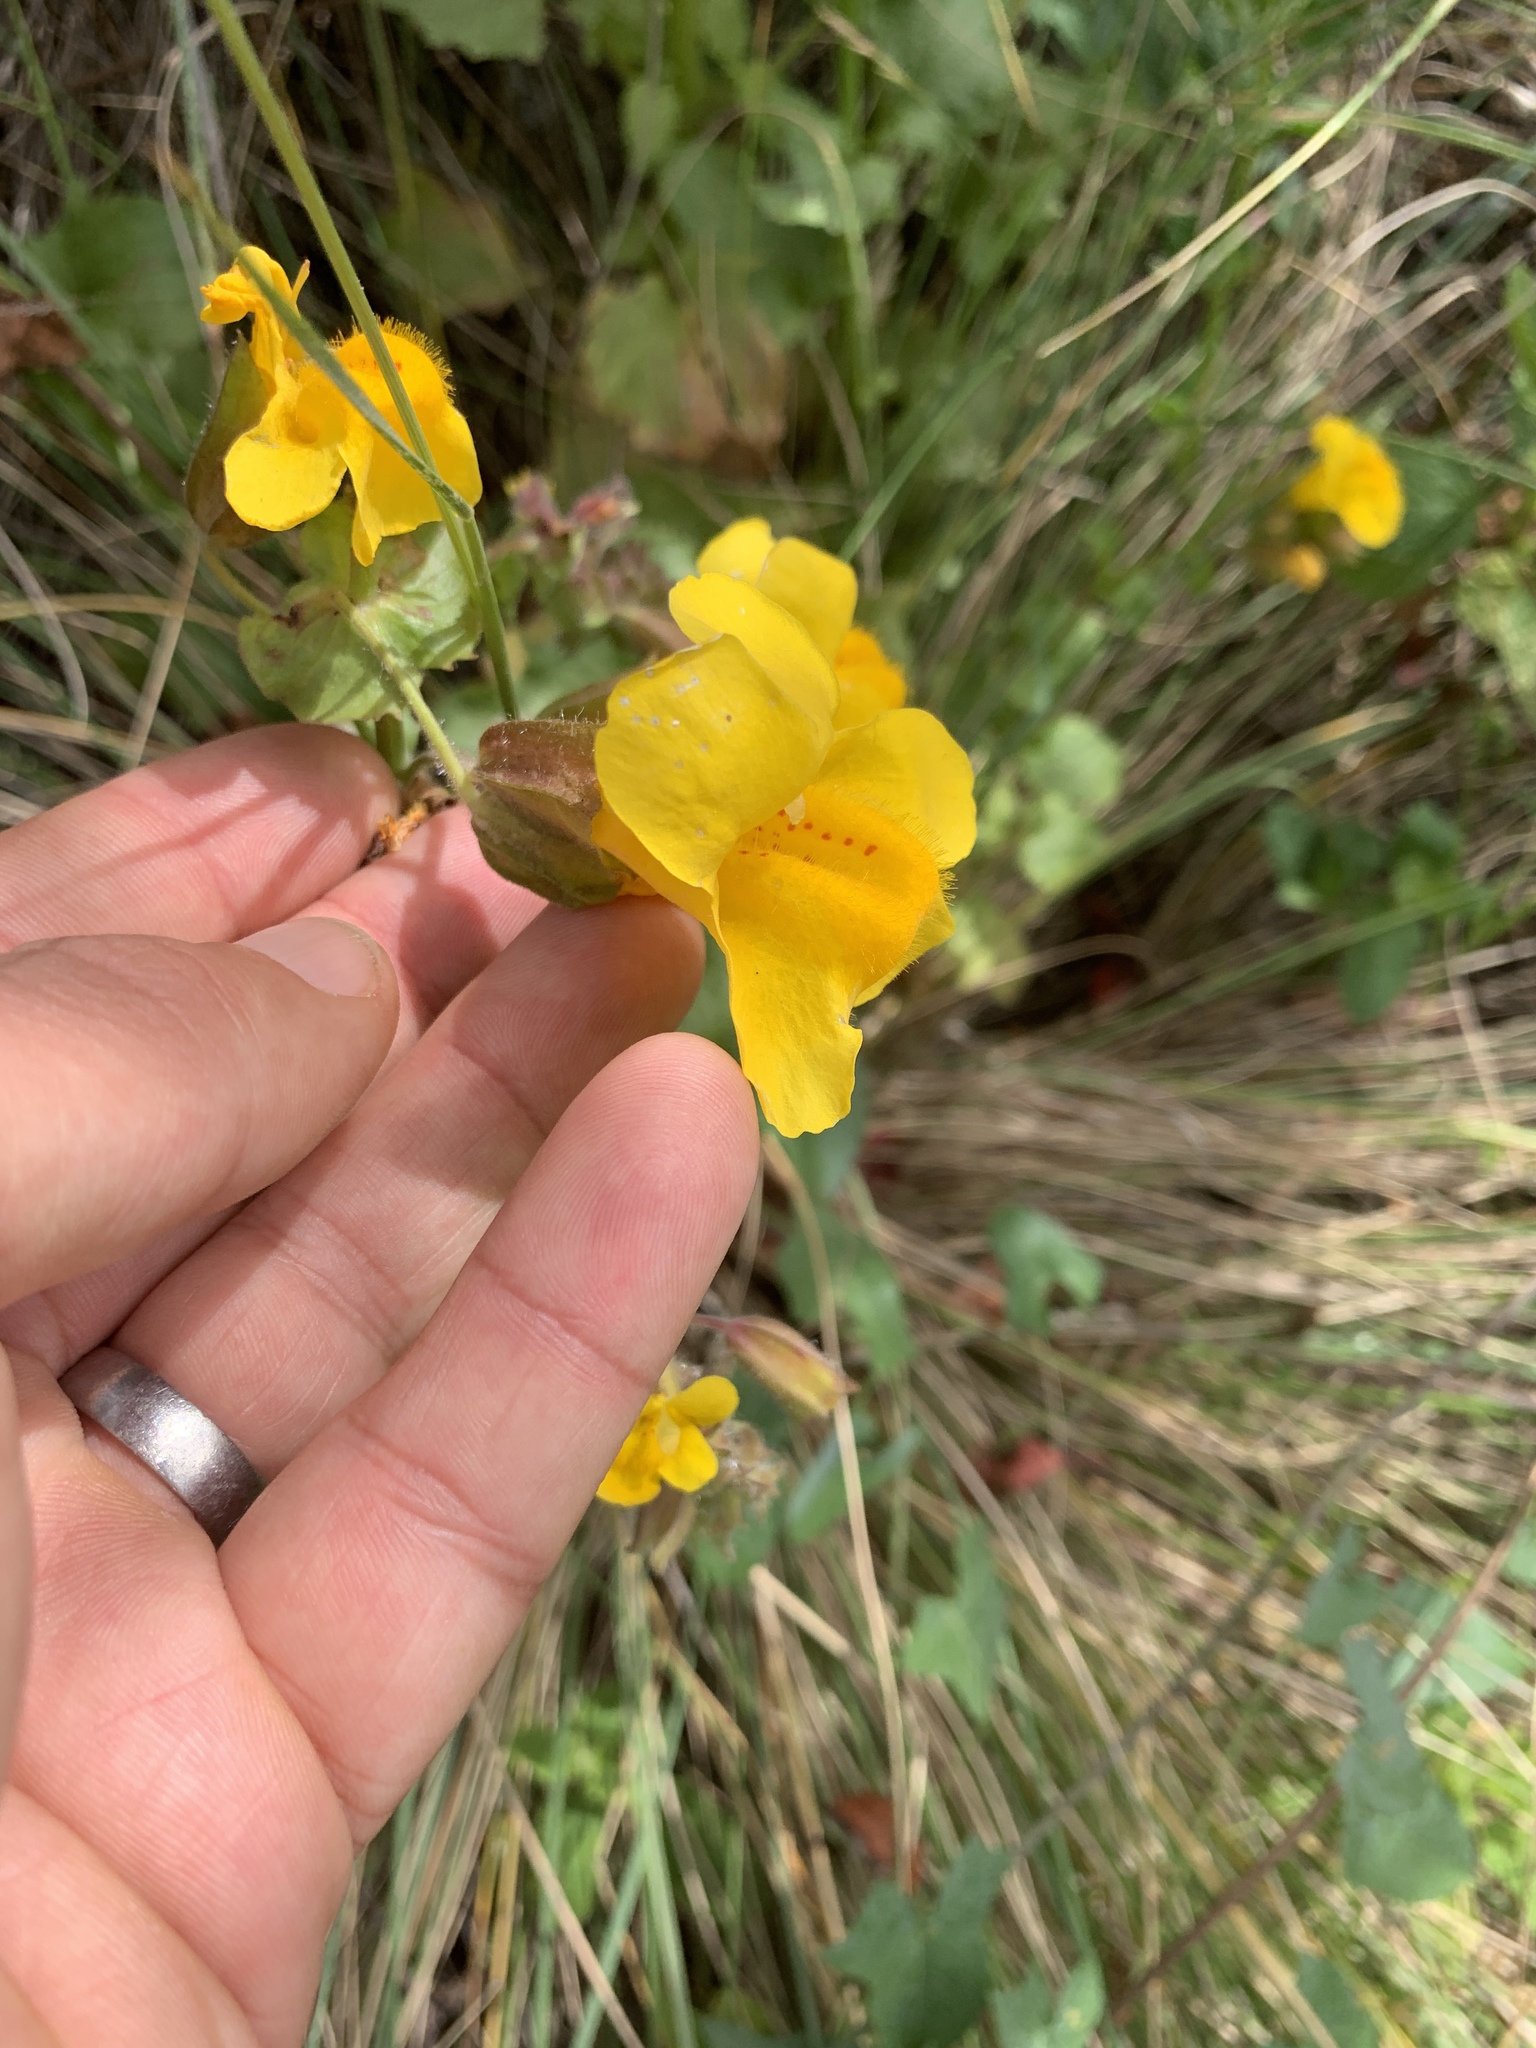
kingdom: Plantae
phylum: Tracheophyta
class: Magnoliopsida
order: Lamiales
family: Phrymaceae
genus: Erythranthe
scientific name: Erythranthe guttata
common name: Monkeyflower
